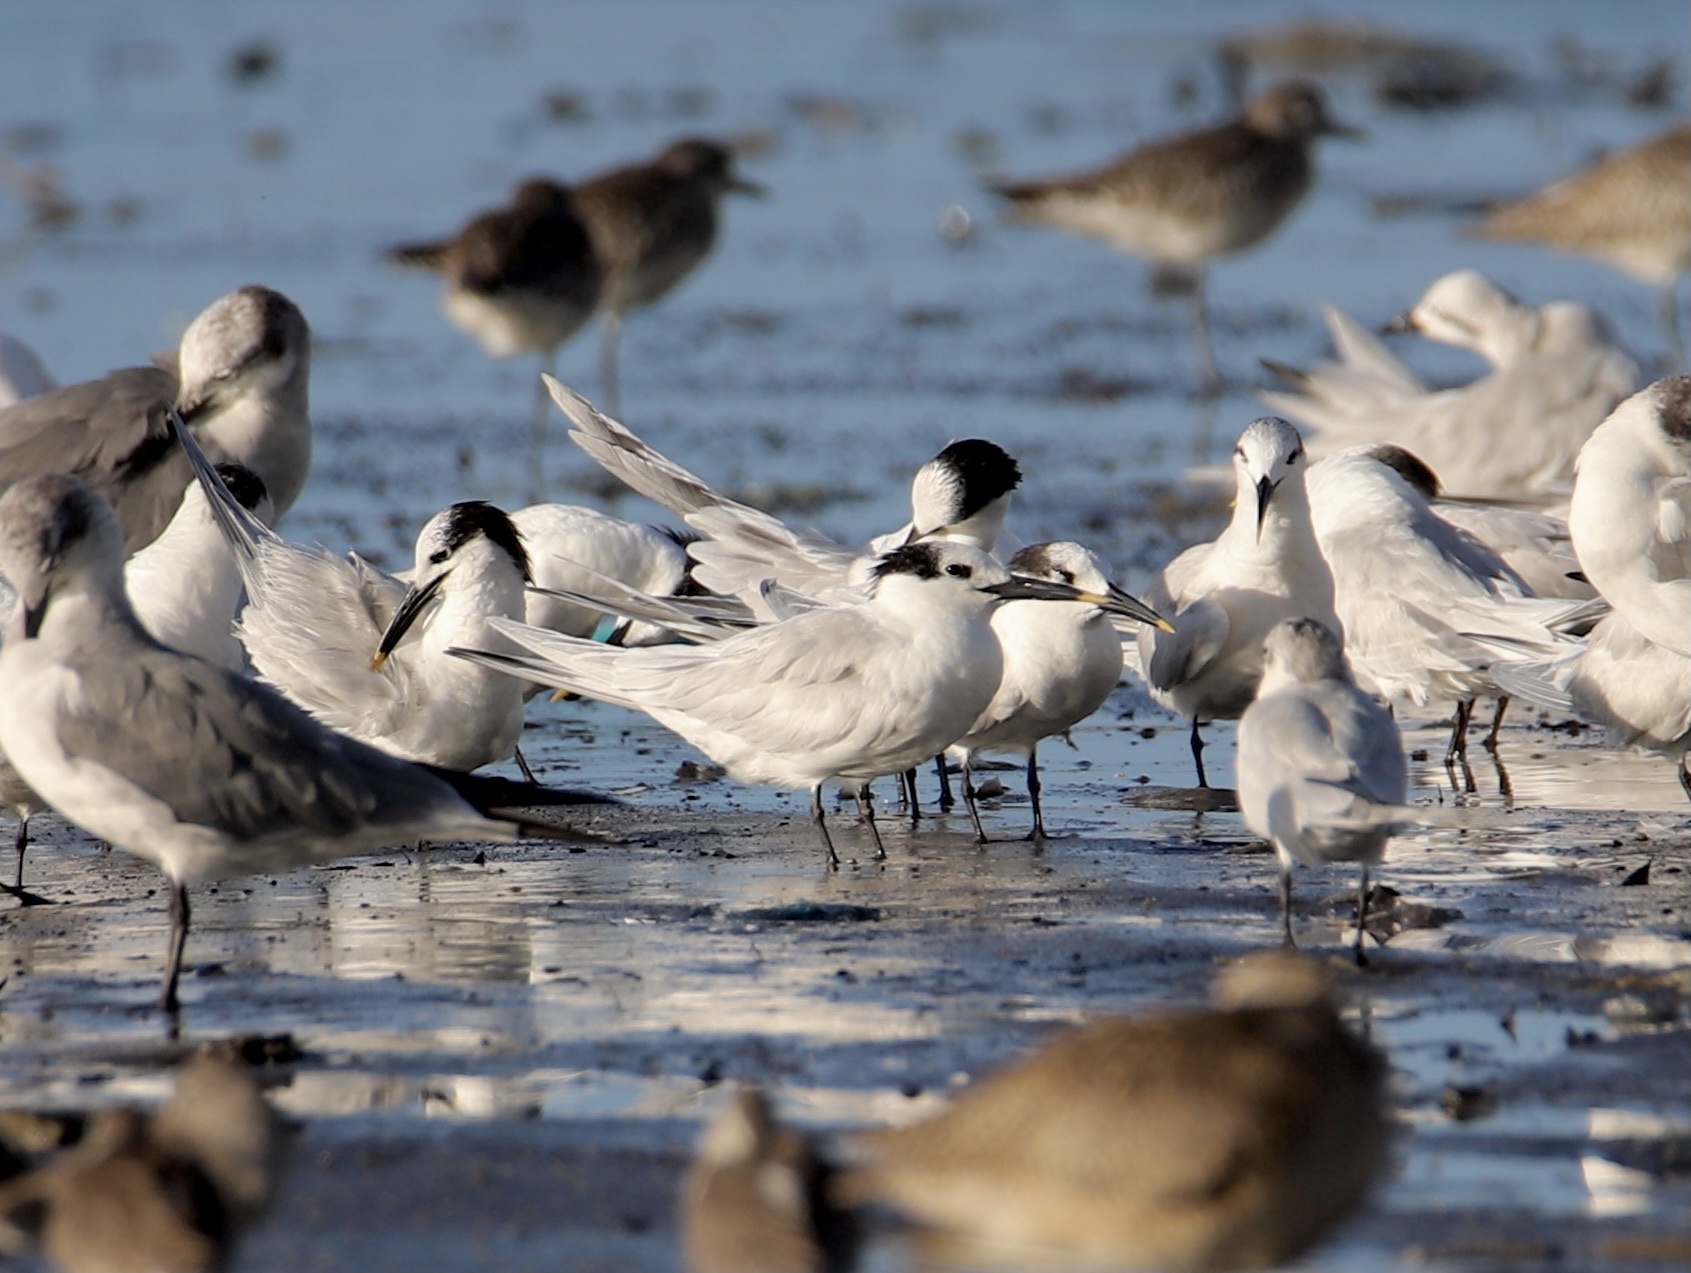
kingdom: Animalia
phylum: Chordata
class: Aves
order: Charadriiformes
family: Laridae
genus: Thalasseus
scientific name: Thalasseus sandvicensis
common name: Sandwich tern
